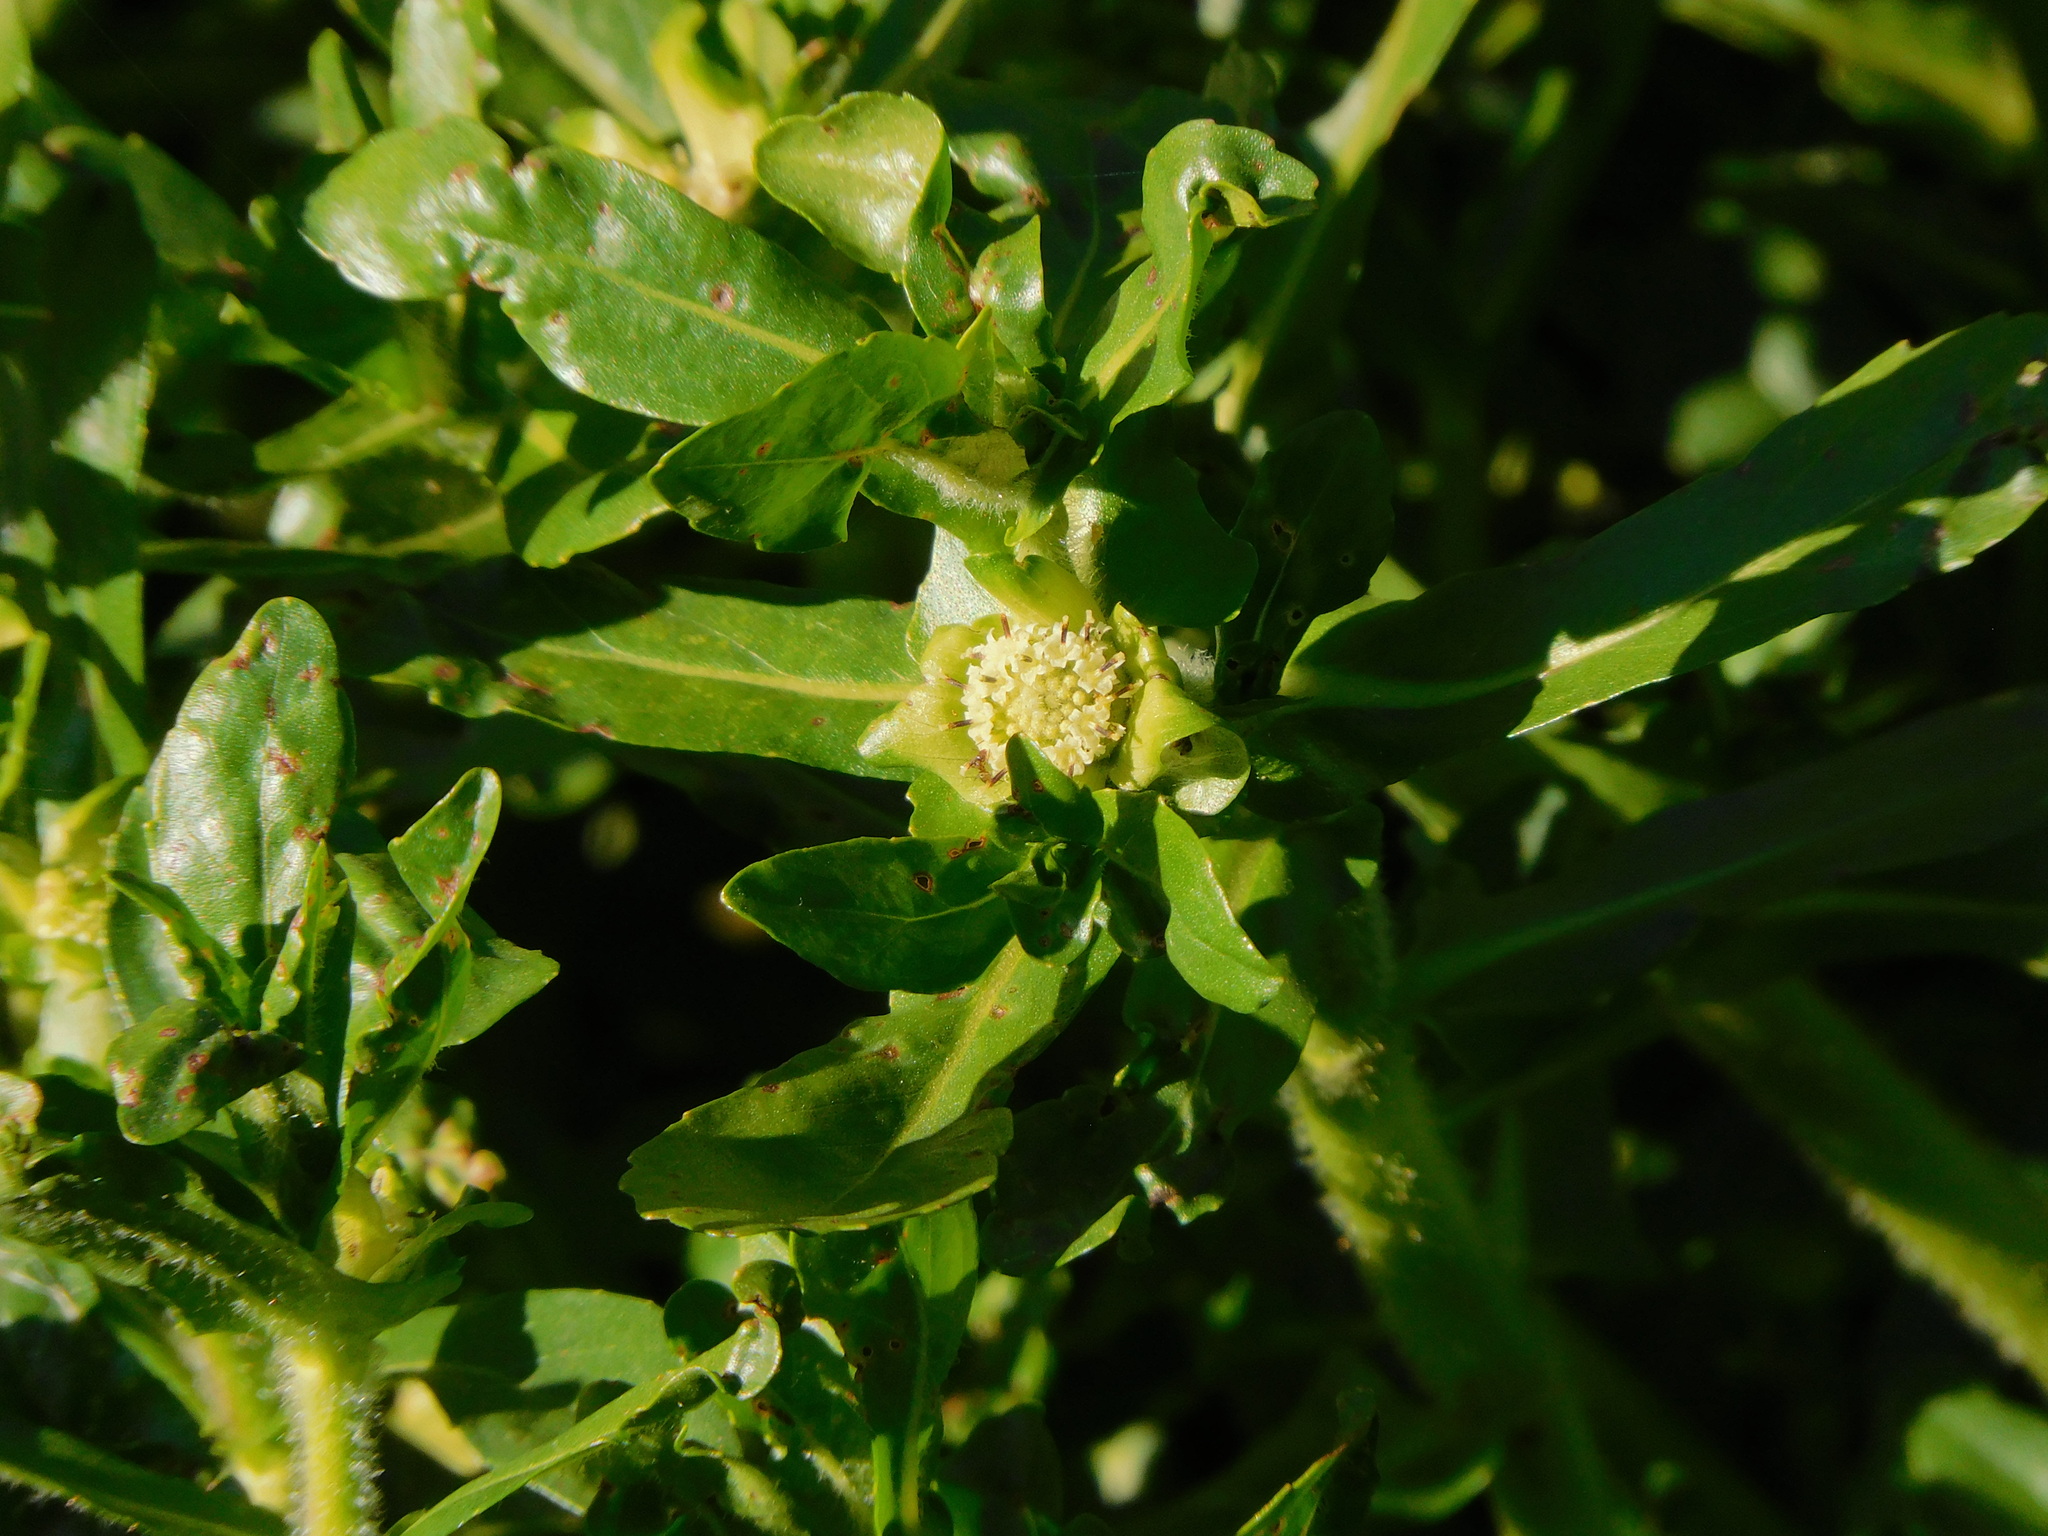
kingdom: Plantae
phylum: Tracheophyta
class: Magnoliopsida
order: Asterales
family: Asteraceae
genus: Enydra
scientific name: Enydra fluctuans
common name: Buffalo spinach
